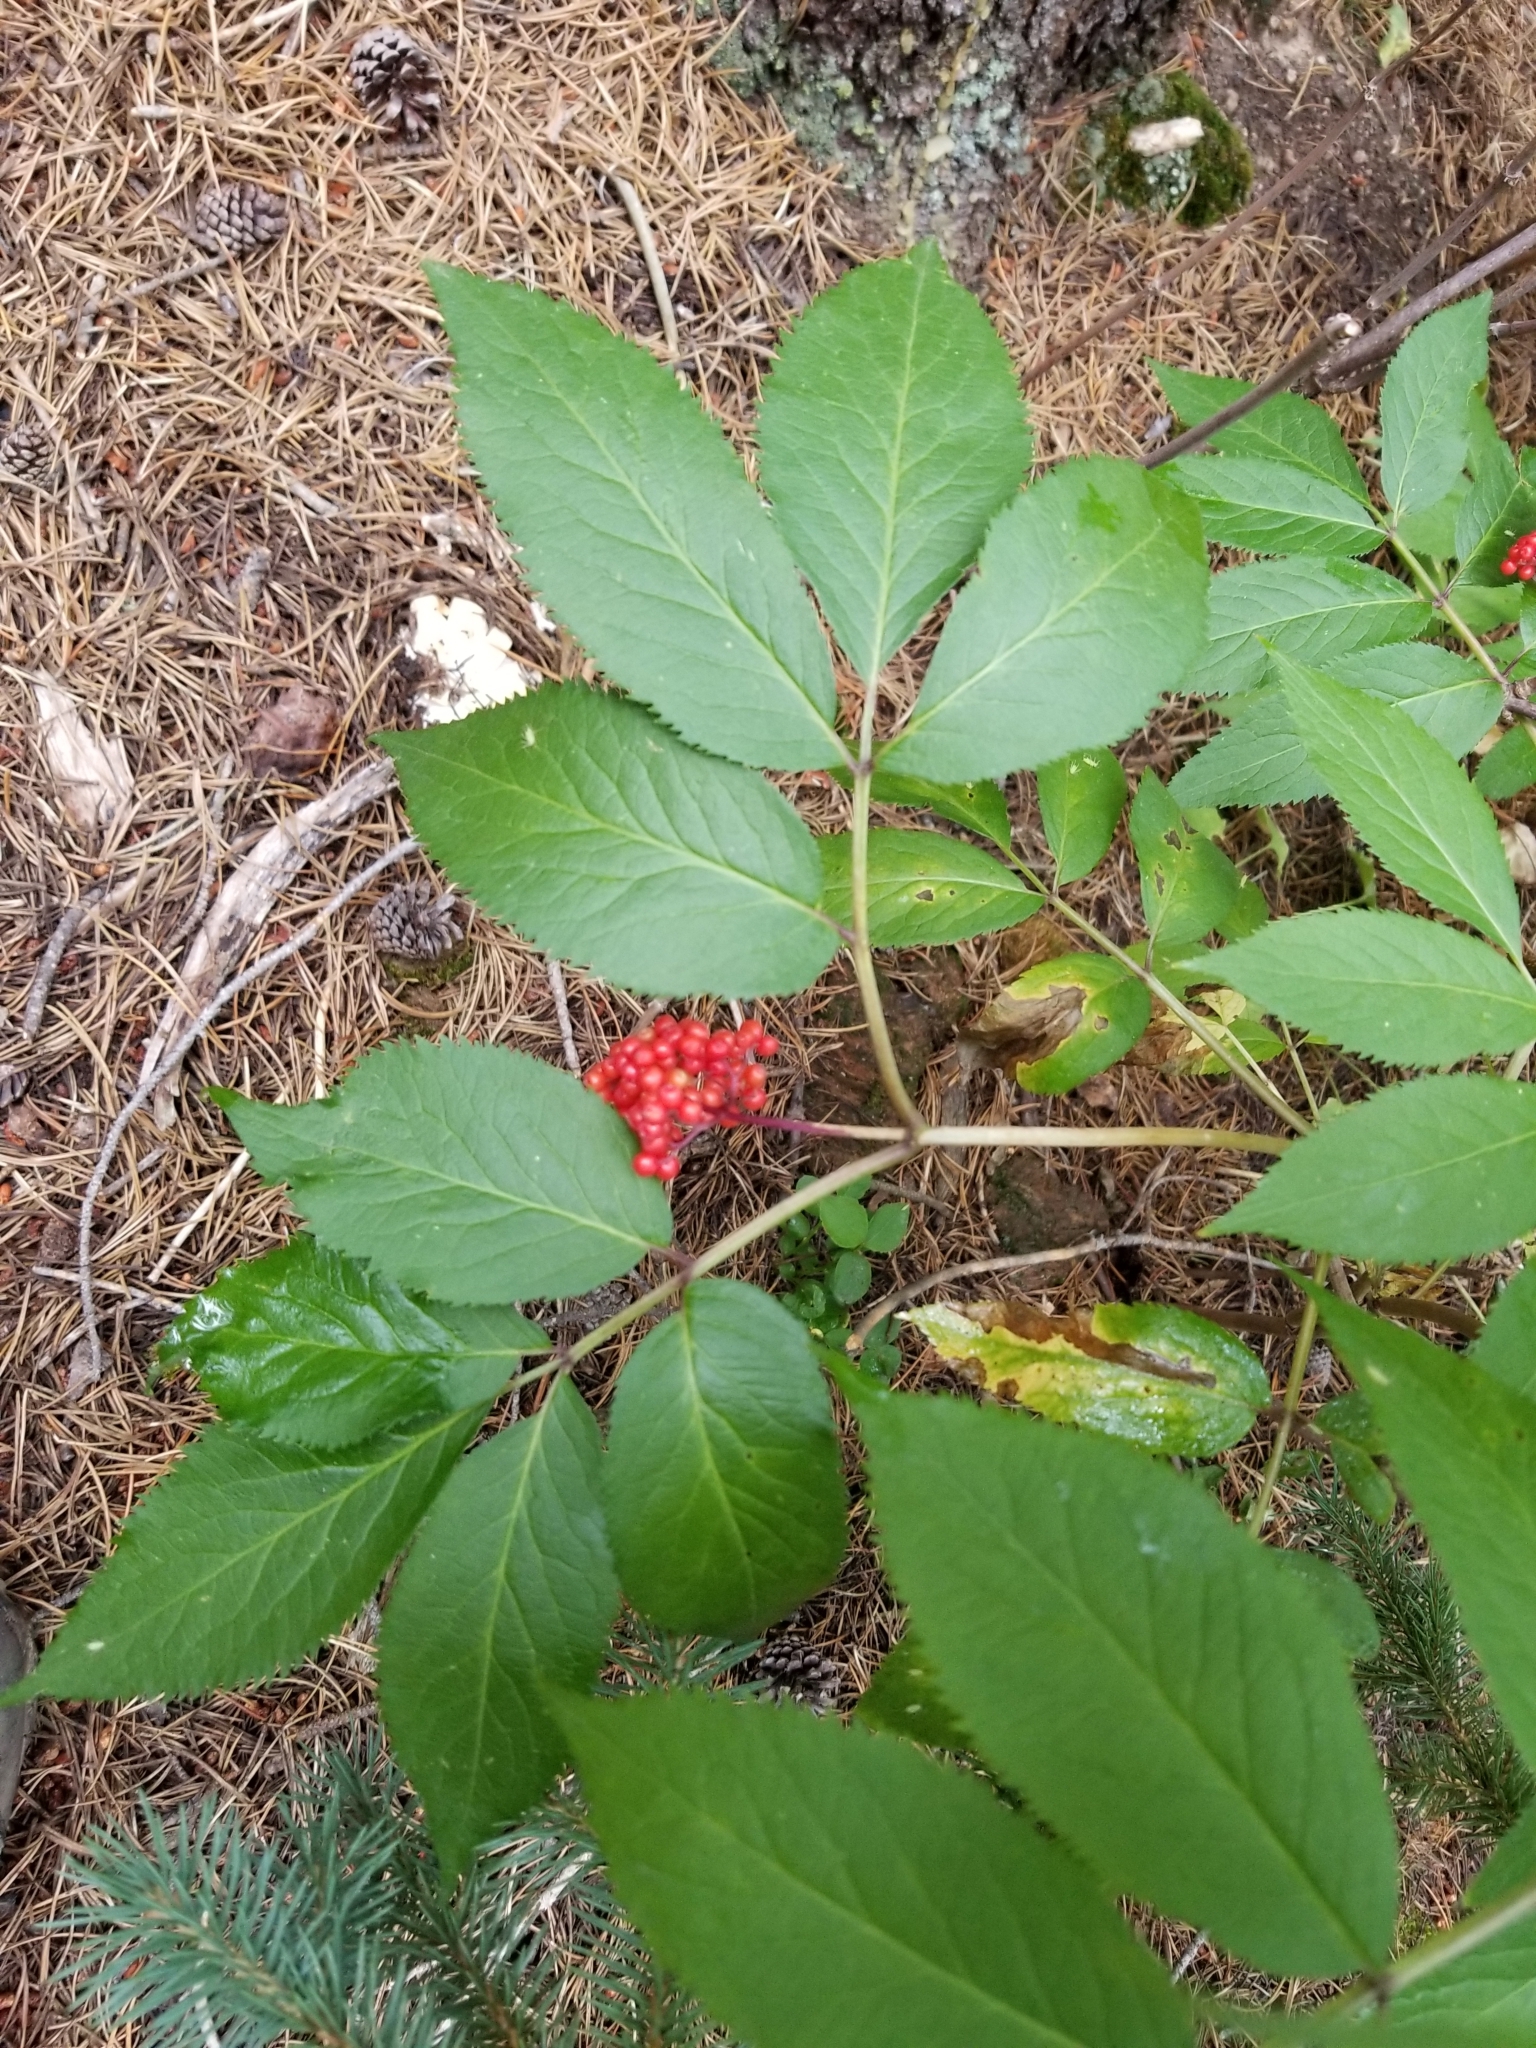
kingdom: Plantae
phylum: Tracheophyta
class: Magnoliopsida
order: Dipsacales
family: Viburnaceae
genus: Sambucus
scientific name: Sambucus racemosa
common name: Red-berried elder
